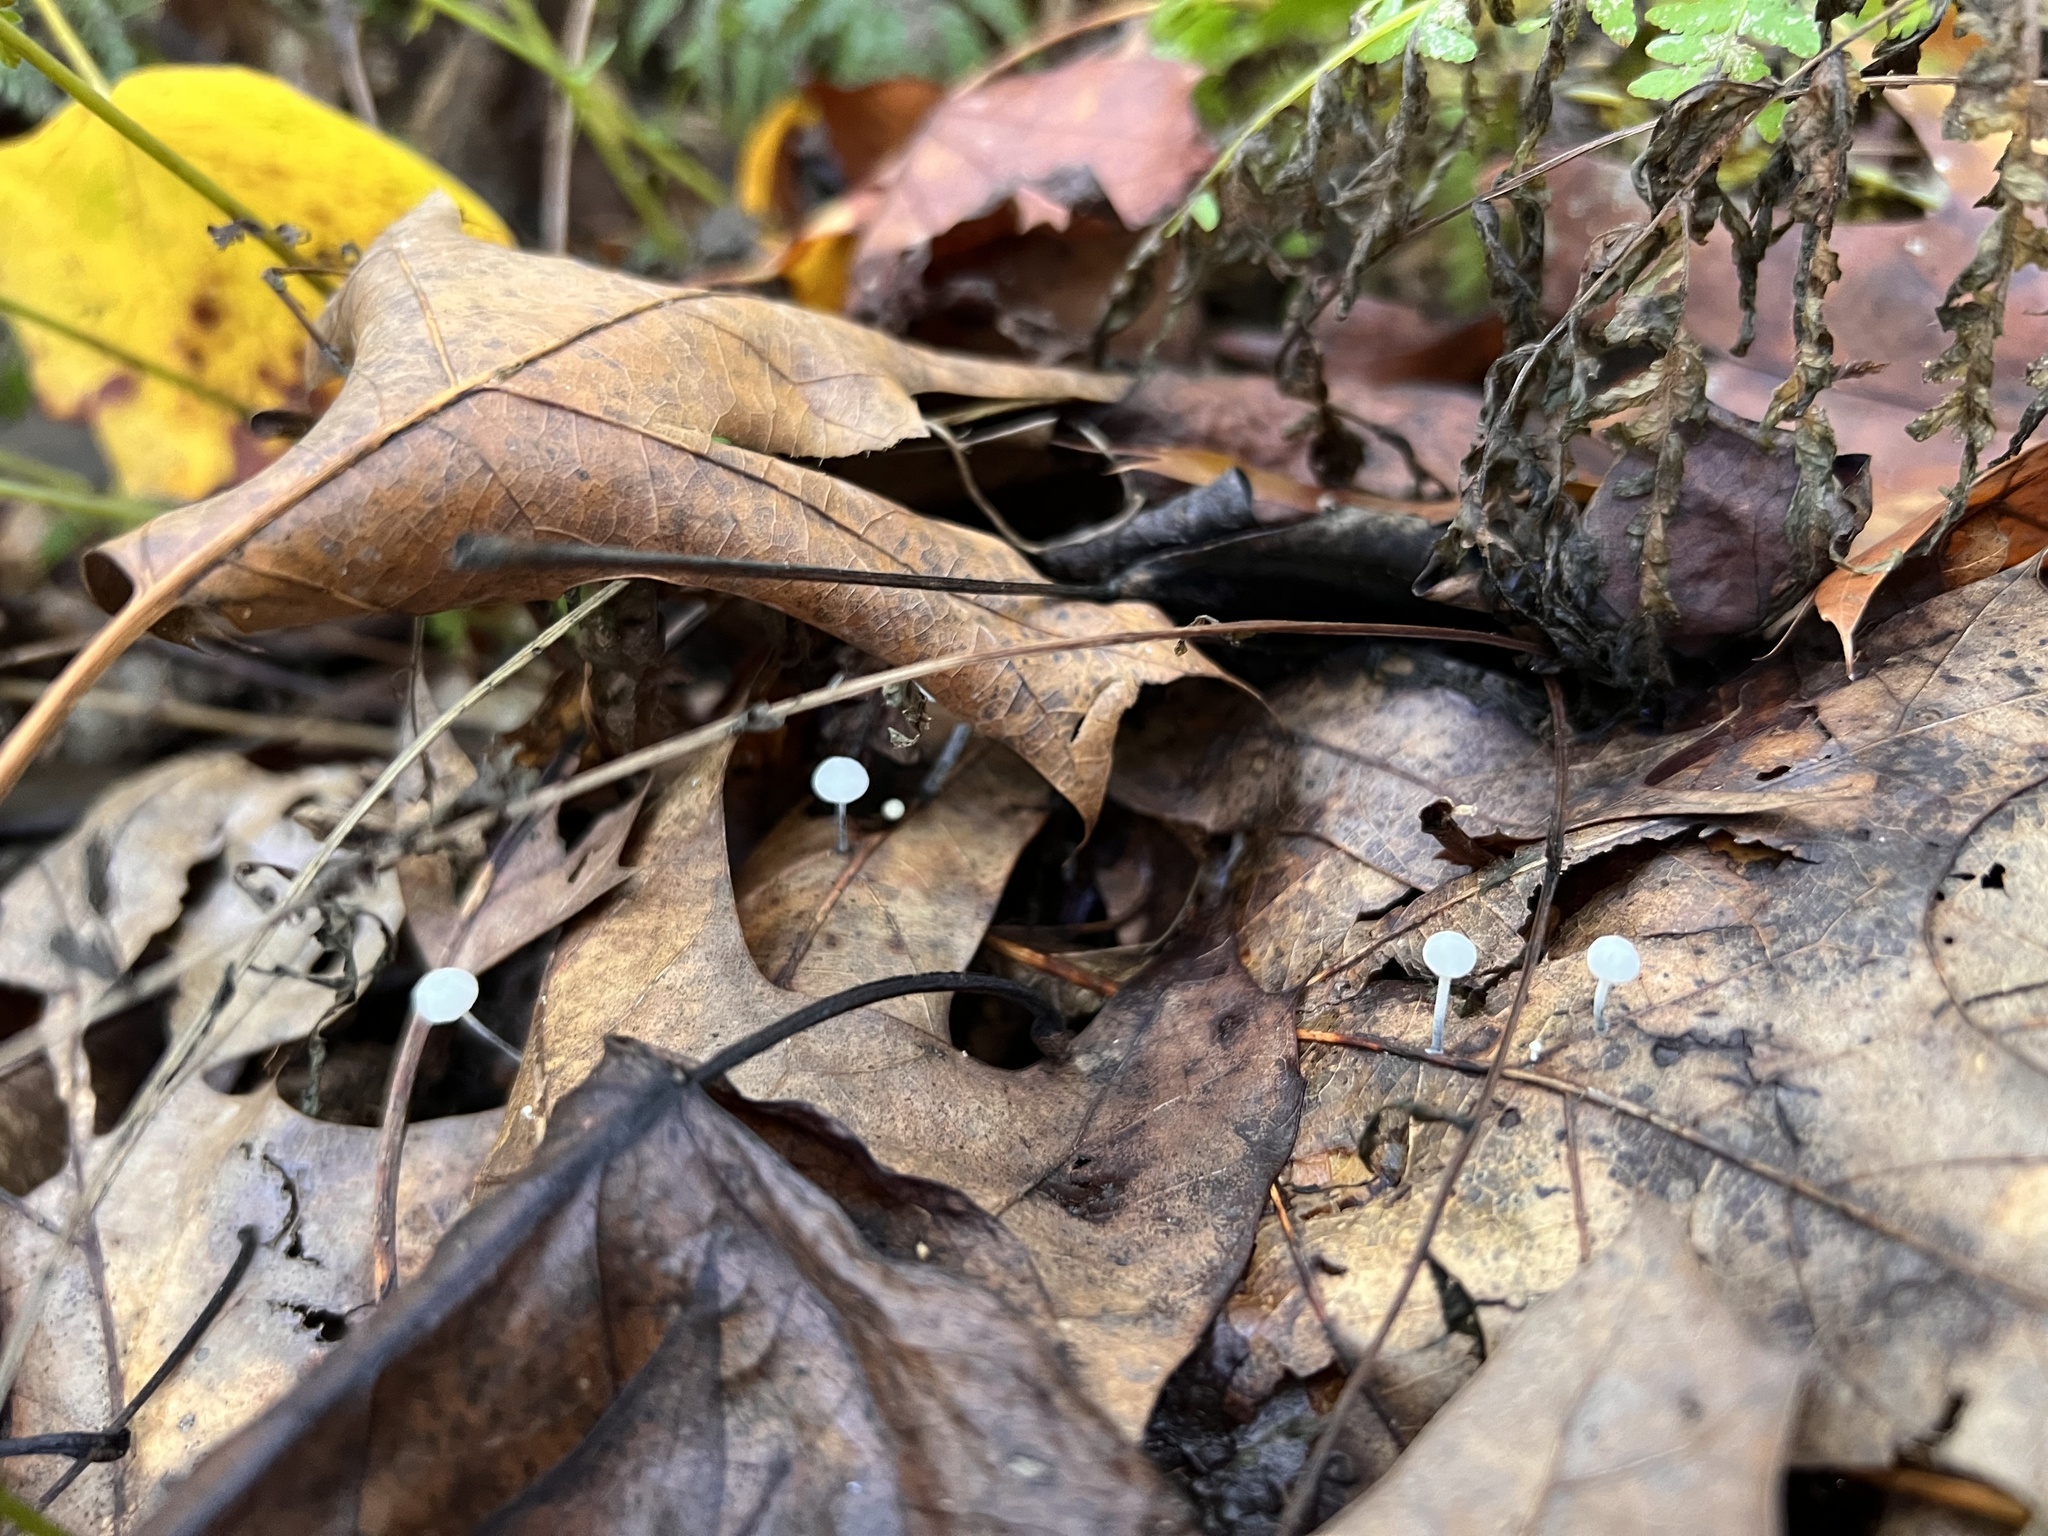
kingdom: Fungi
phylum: Basidiomycota
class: Agaricomycetes
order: Agaricales
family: Marasmiaceae
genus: Tetrapyrgos
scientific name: Tetrapyrgos nigripes
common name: Black-stalked marasmius
